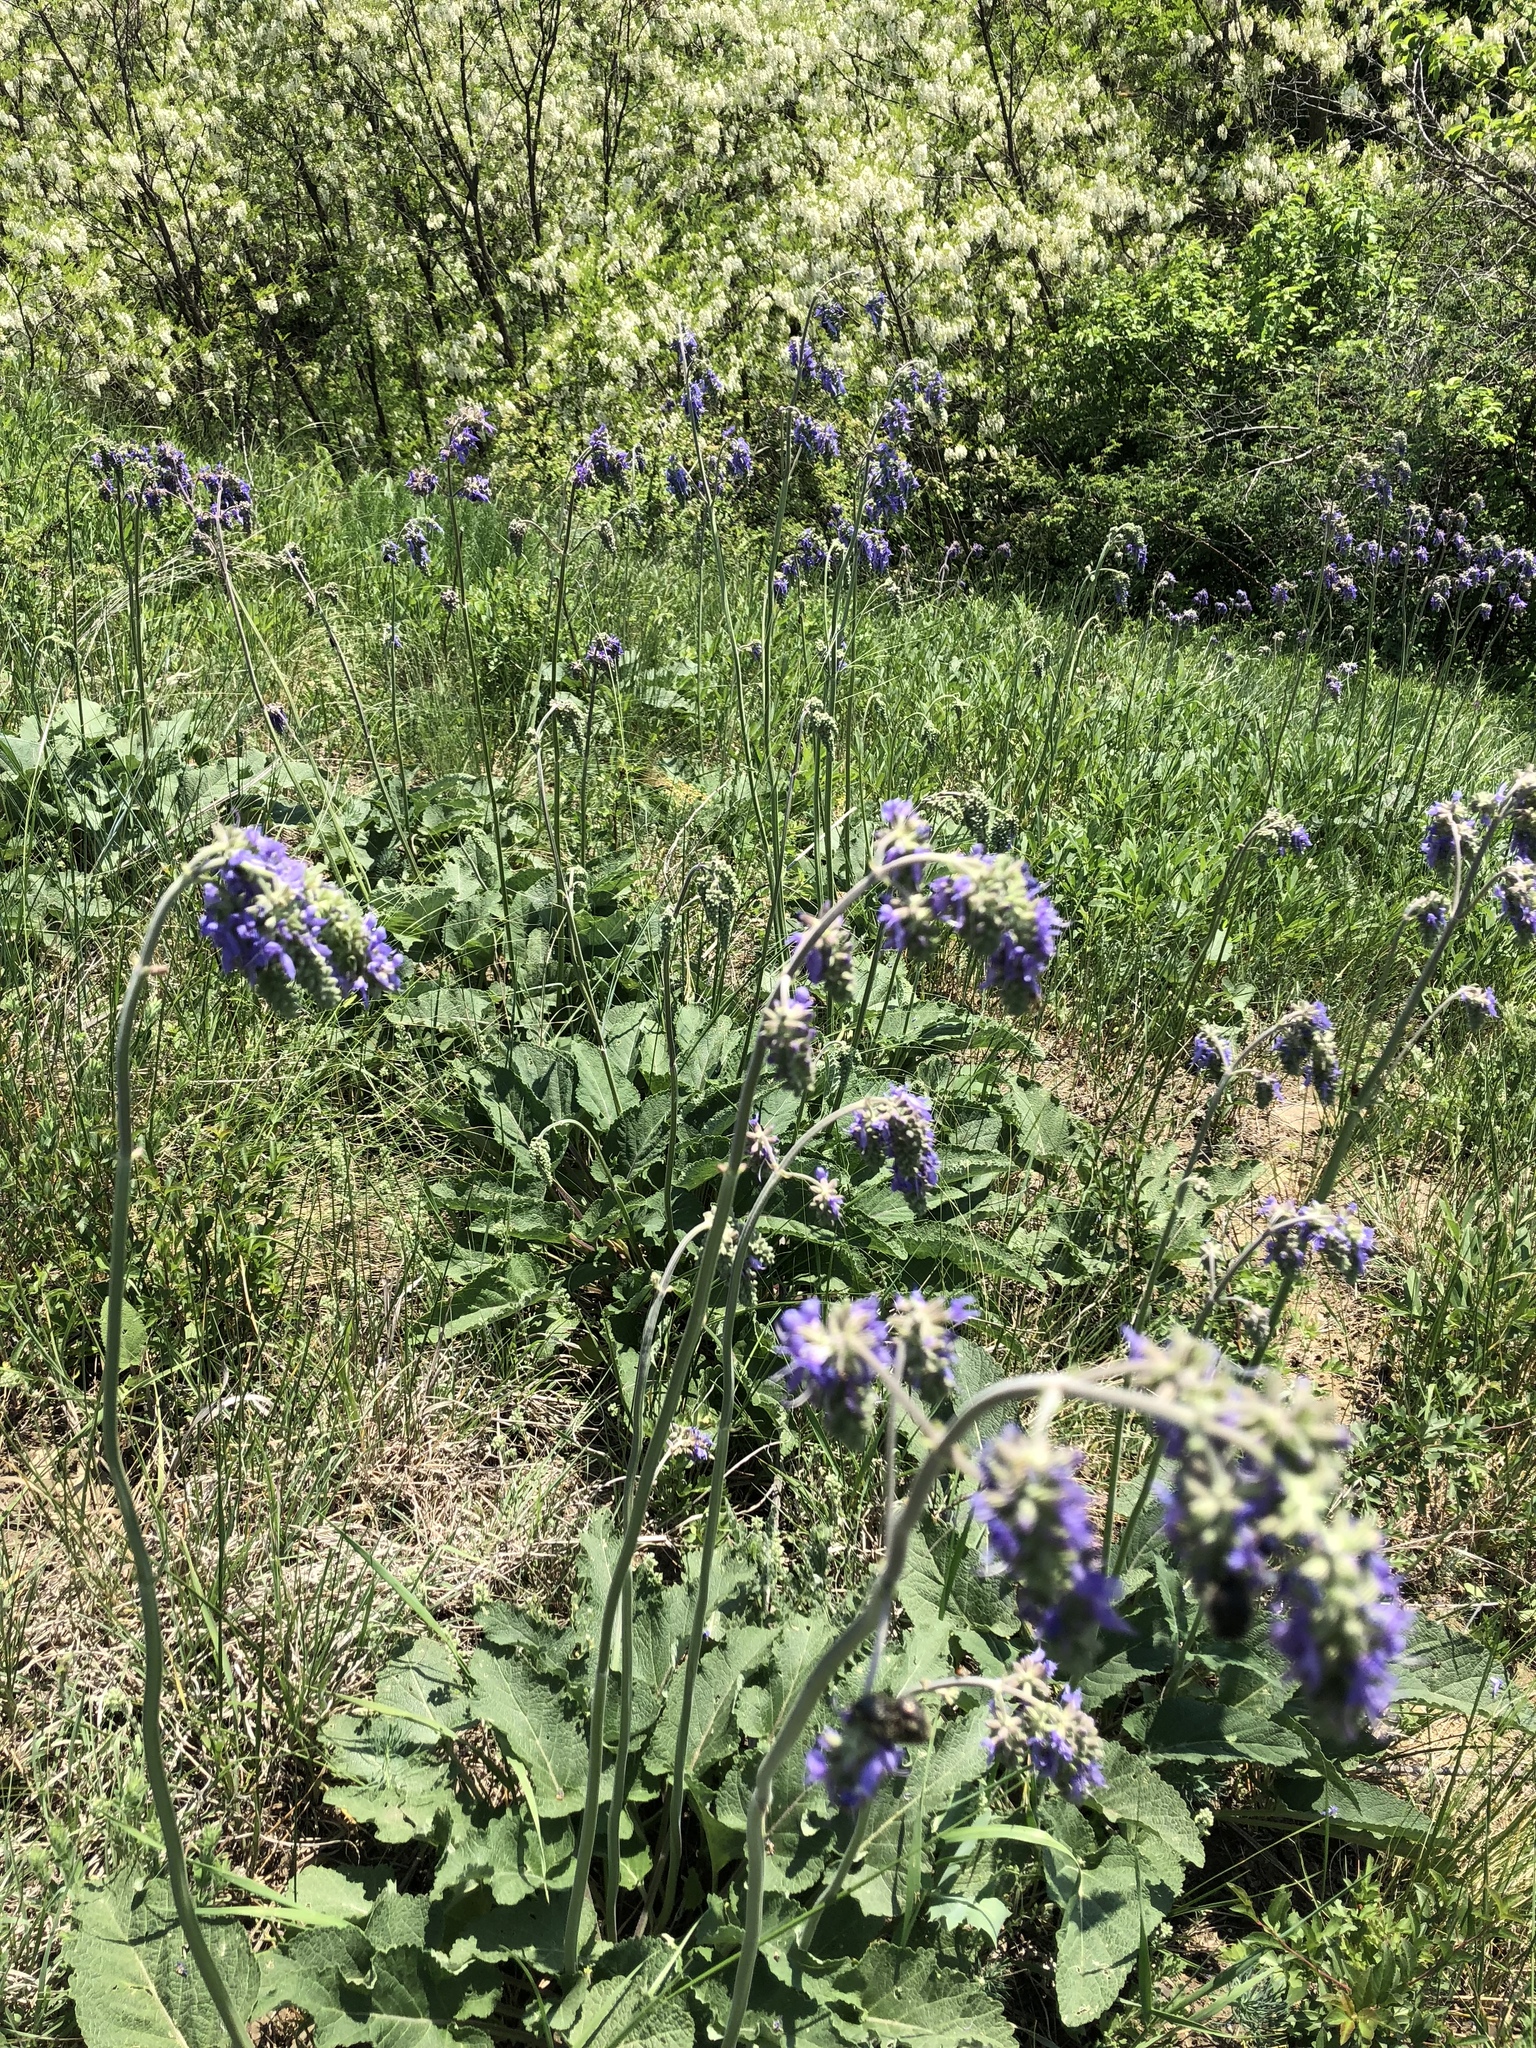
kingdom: Plantae
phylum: Tracheophyta
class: Magnoliopsida
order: Lamiales
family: Lamiaceae
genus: Salvia
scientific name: Salvia nutans
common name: Nodding sage
